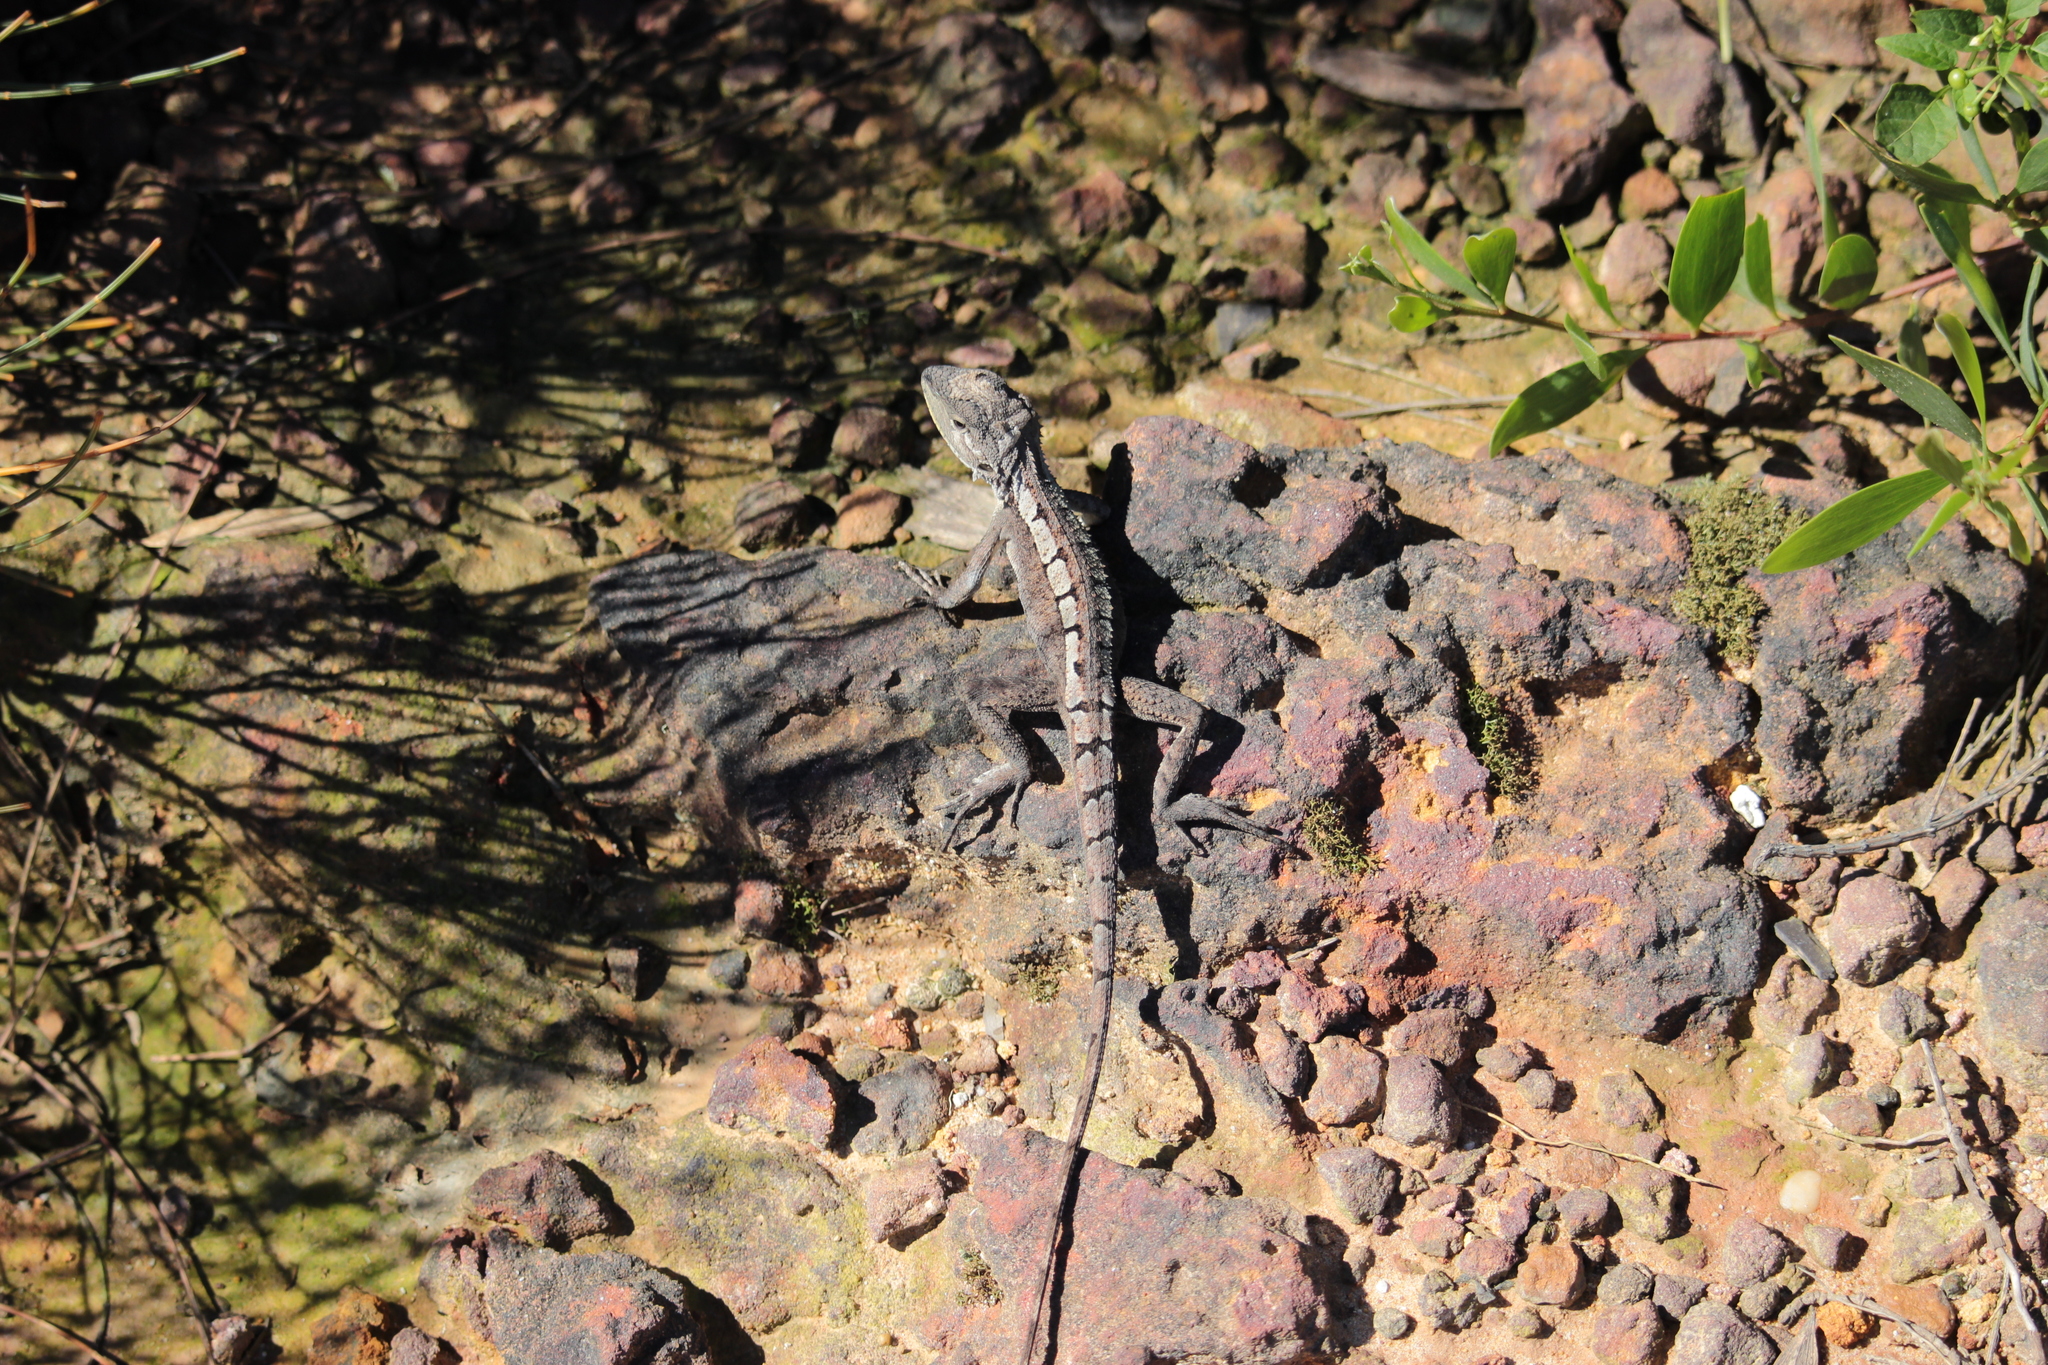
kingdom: Animalia
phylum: Chordata
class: Squamata
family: Agamidae
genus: Amphibolurus
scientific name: Amphibolurus muricatus
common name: Jacky lizard
